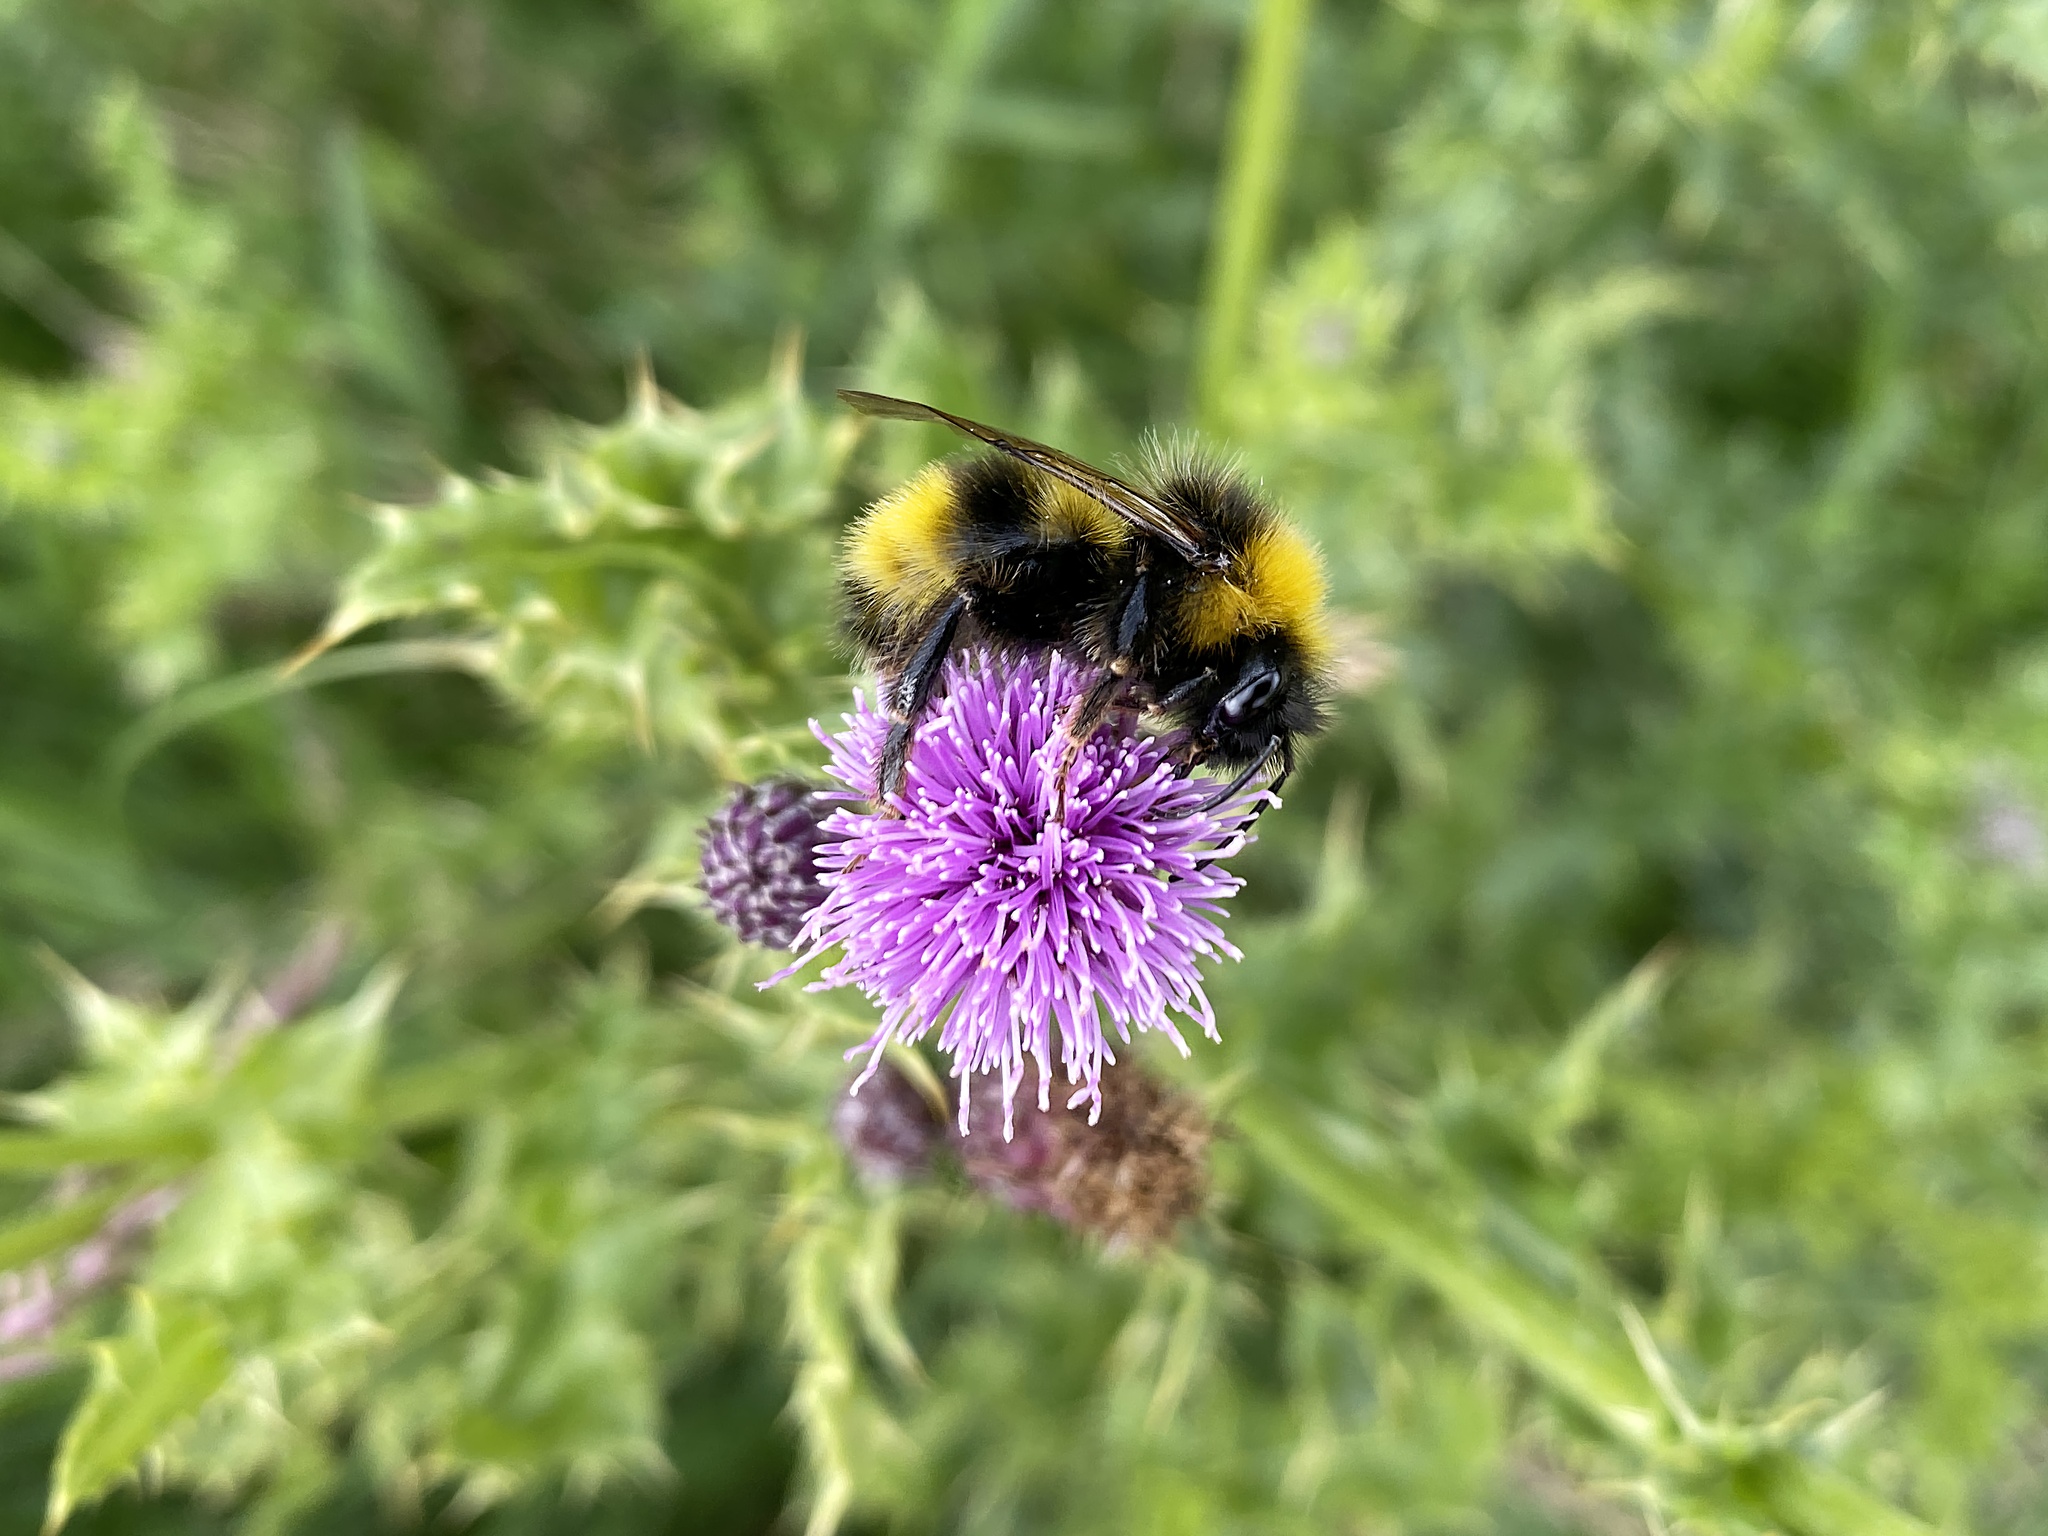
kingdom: Animalia
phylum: Arthropoda
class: Insecta
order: Hymenoptera
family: Apidae
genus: Bombus
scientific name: Bombus sylvestris
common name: Forest cuckoo bee
